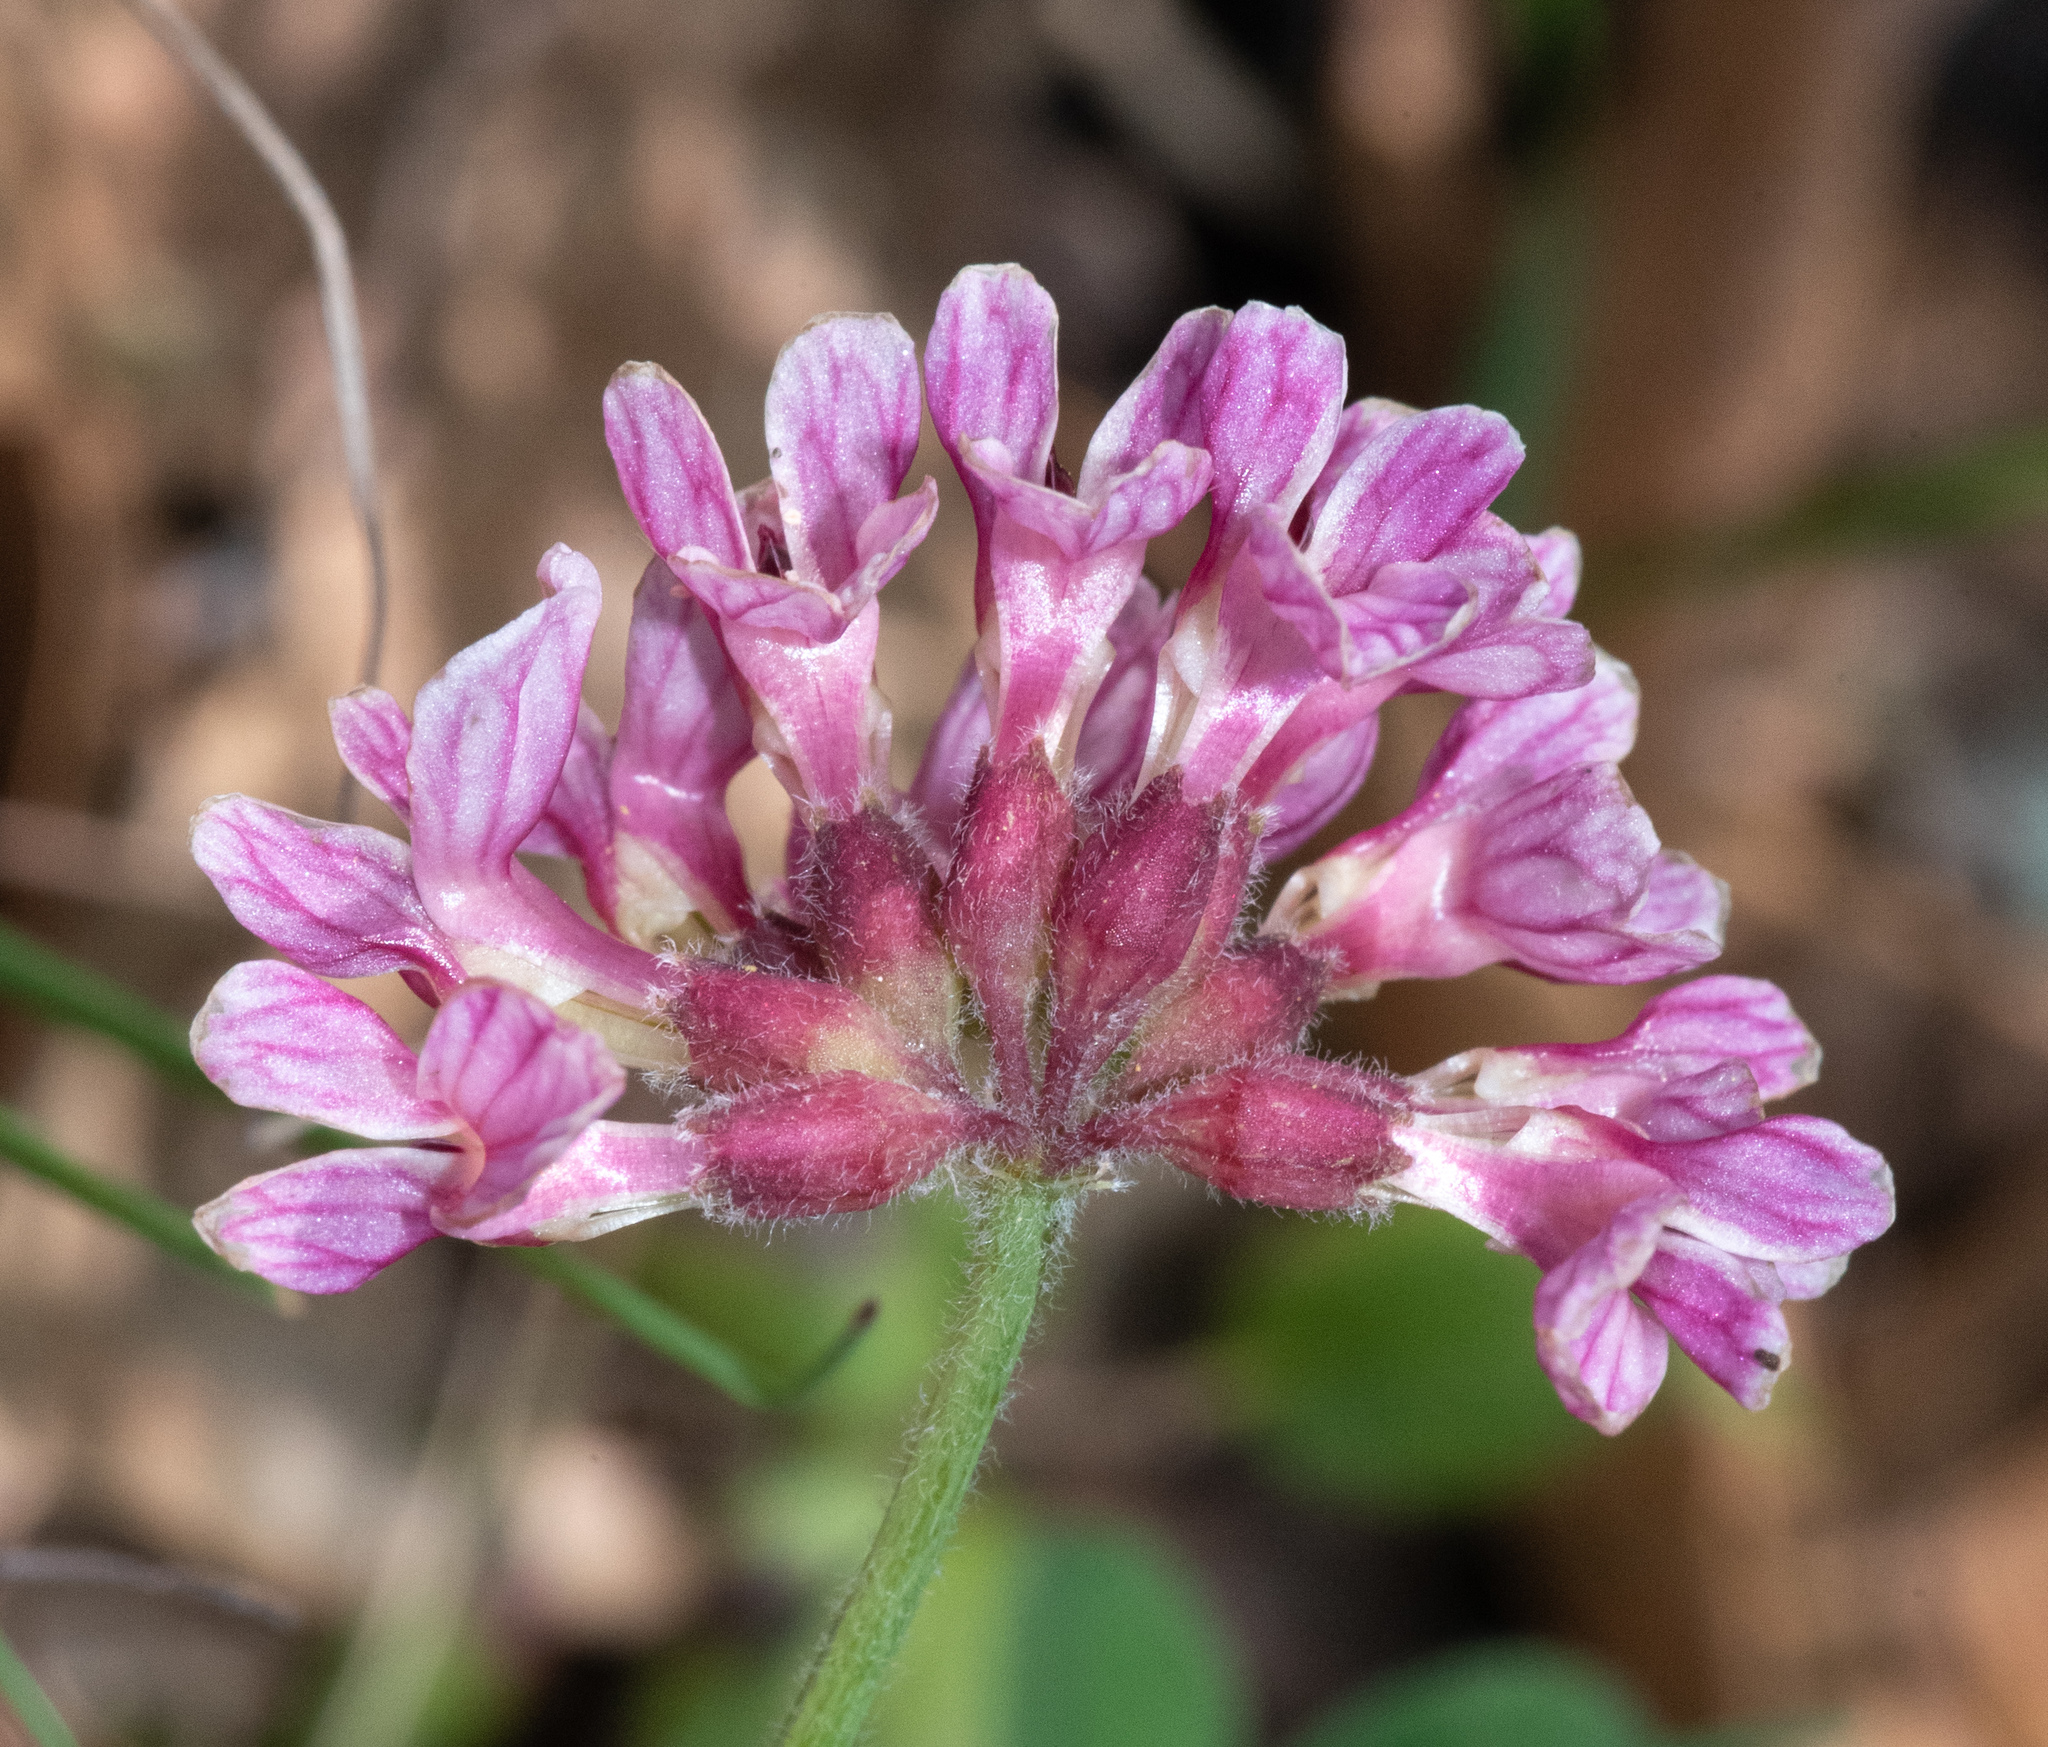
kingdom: Plantae
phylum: Tracheophyta
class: Magnoliopsida
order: Fabales
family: Fabaceae
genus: Hosackia
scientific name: Hosackia rosea
